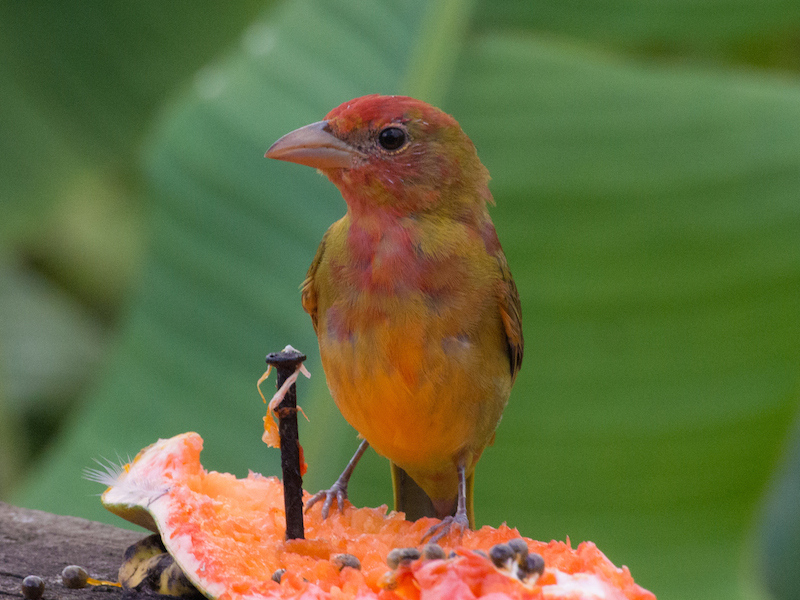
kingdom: Animalia
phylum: Chordata
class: Aves
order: Passeriformes
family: Cardinalidae
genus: Piranga
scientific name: Piranga rubra
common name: Summer tanager
